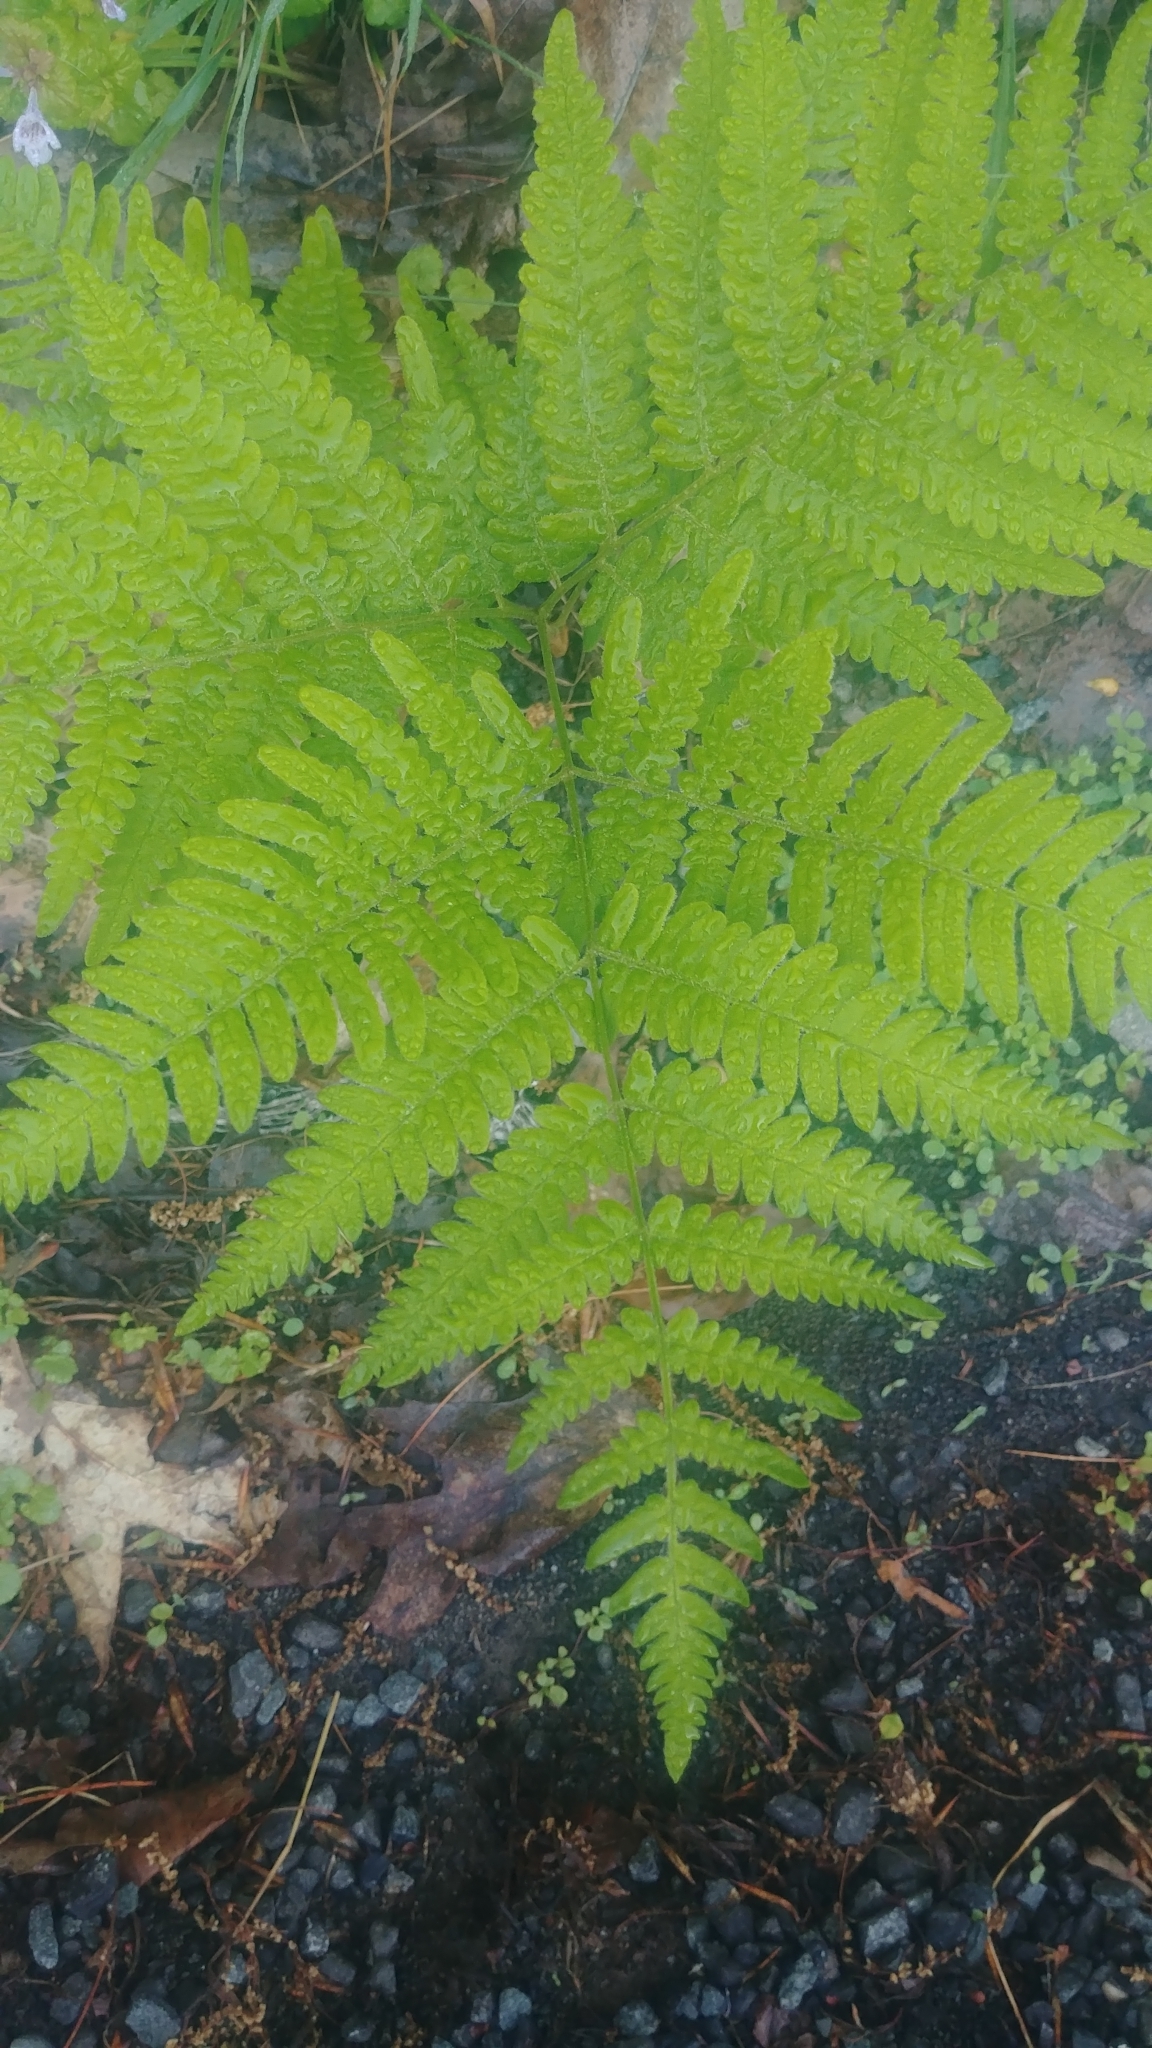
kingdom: Plantae
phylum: Tracheophyta
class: Polypodiopsida
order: Polypodiales
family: Dennstaedtiaceae
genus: Pteridium
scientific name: Pteridium aquilinum
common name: Bracken
